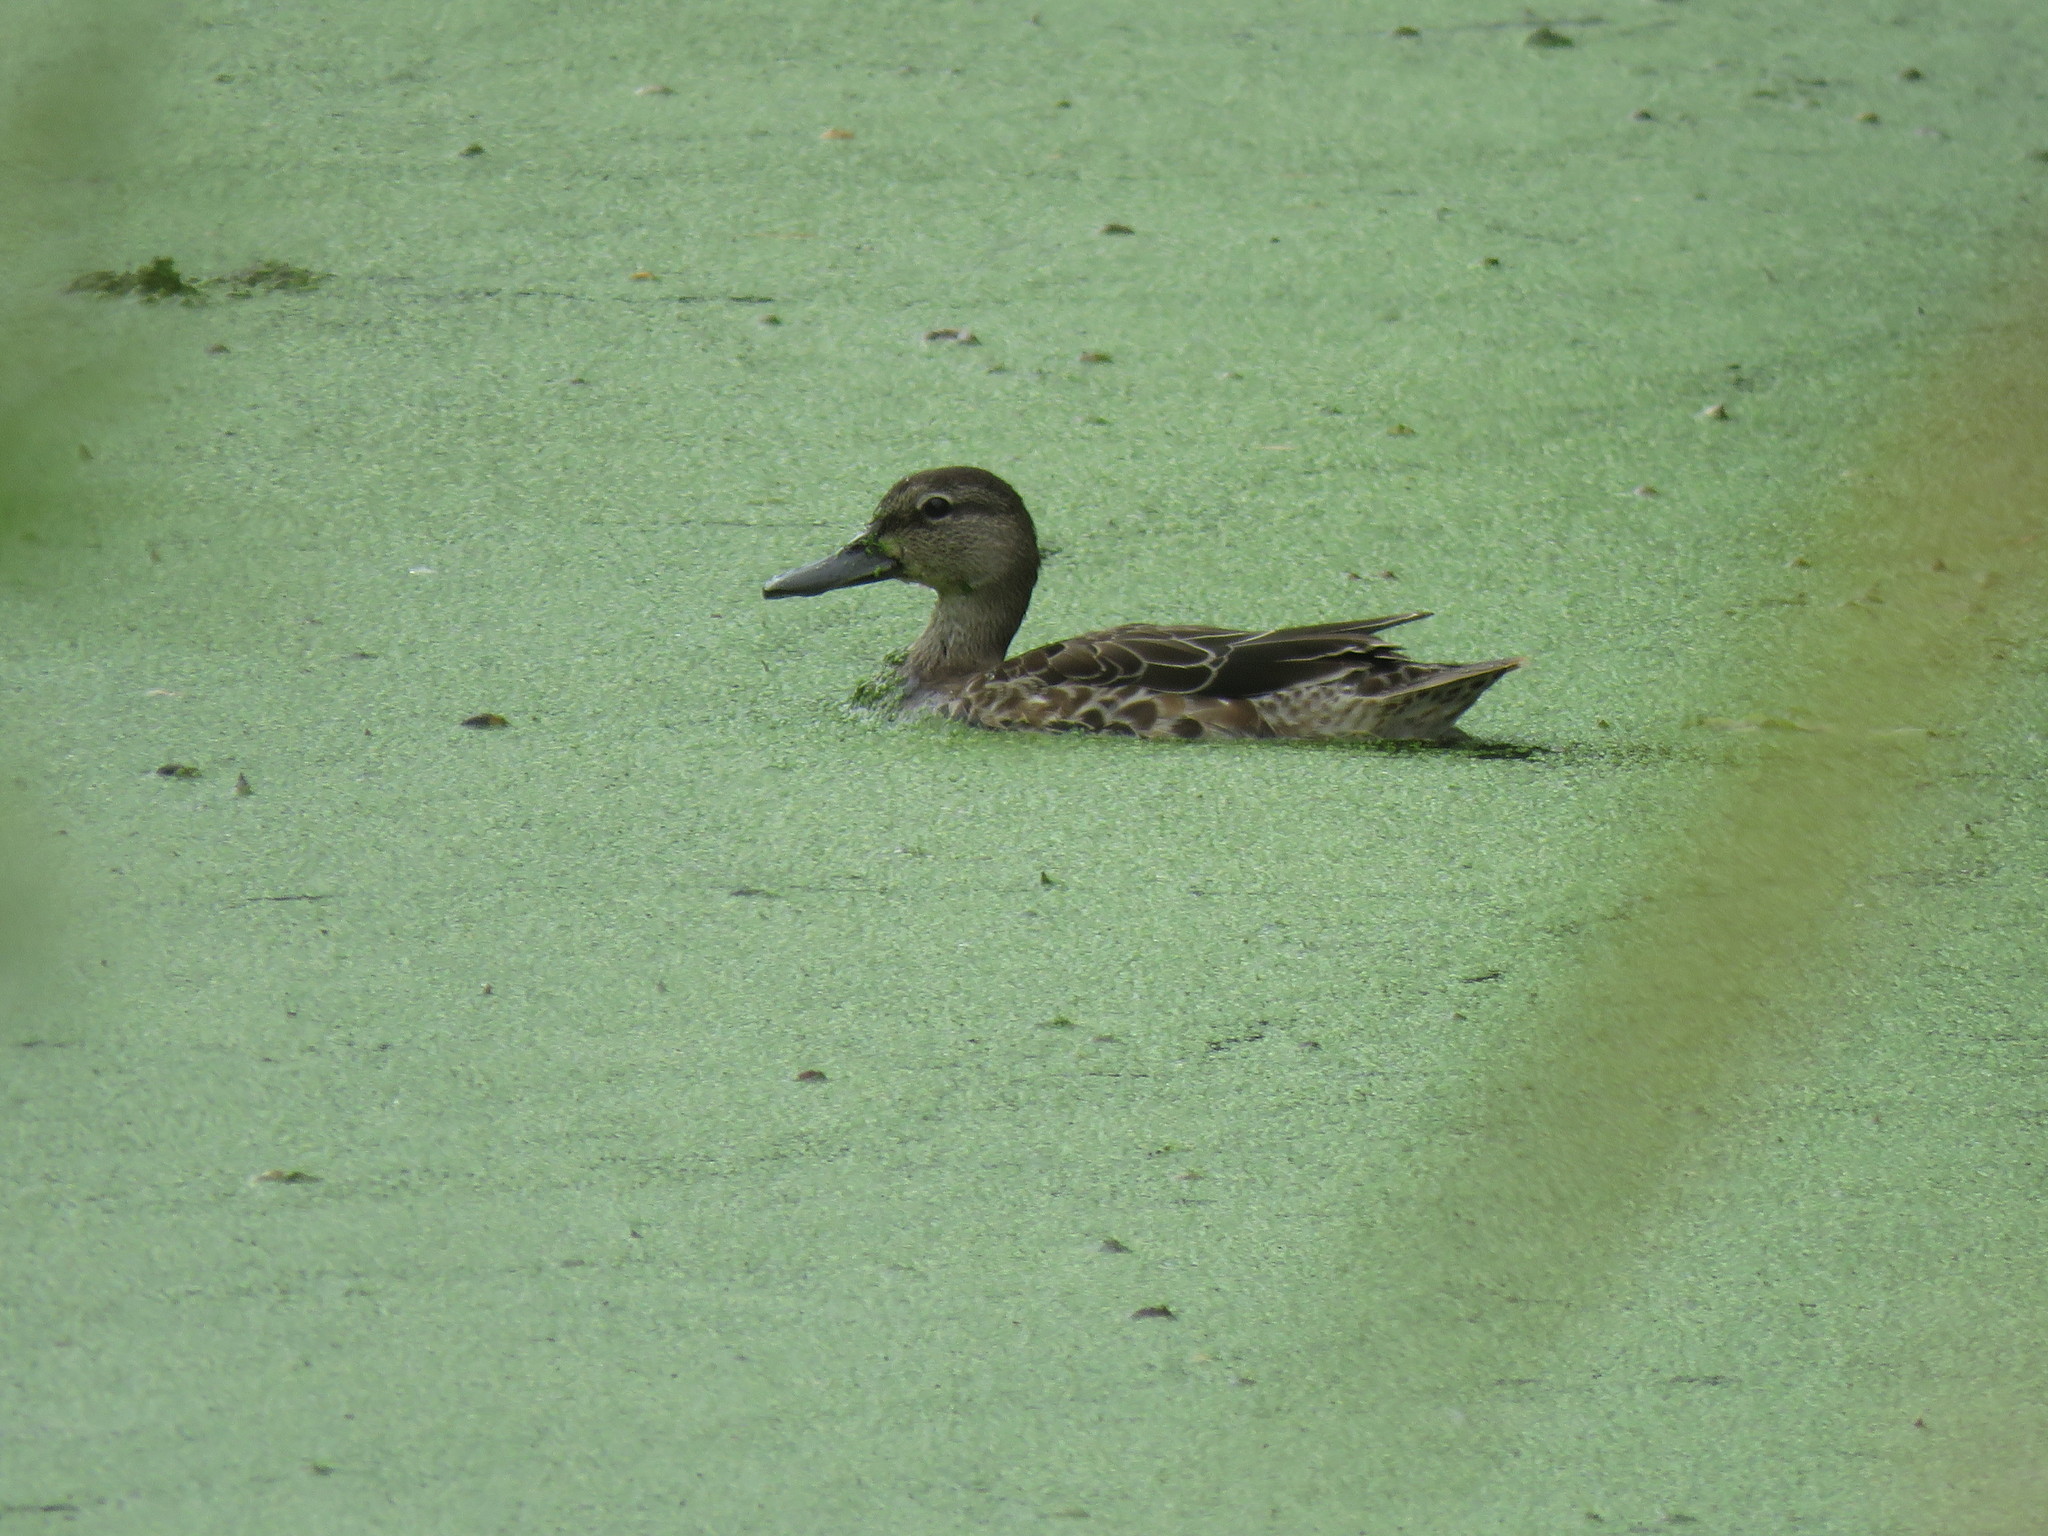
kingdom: Animalia
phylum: Chordata
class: Aves
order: Anseriformes
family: Anatidae
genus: Spatula
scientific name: Spatula discors
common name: Blue-winged teal
